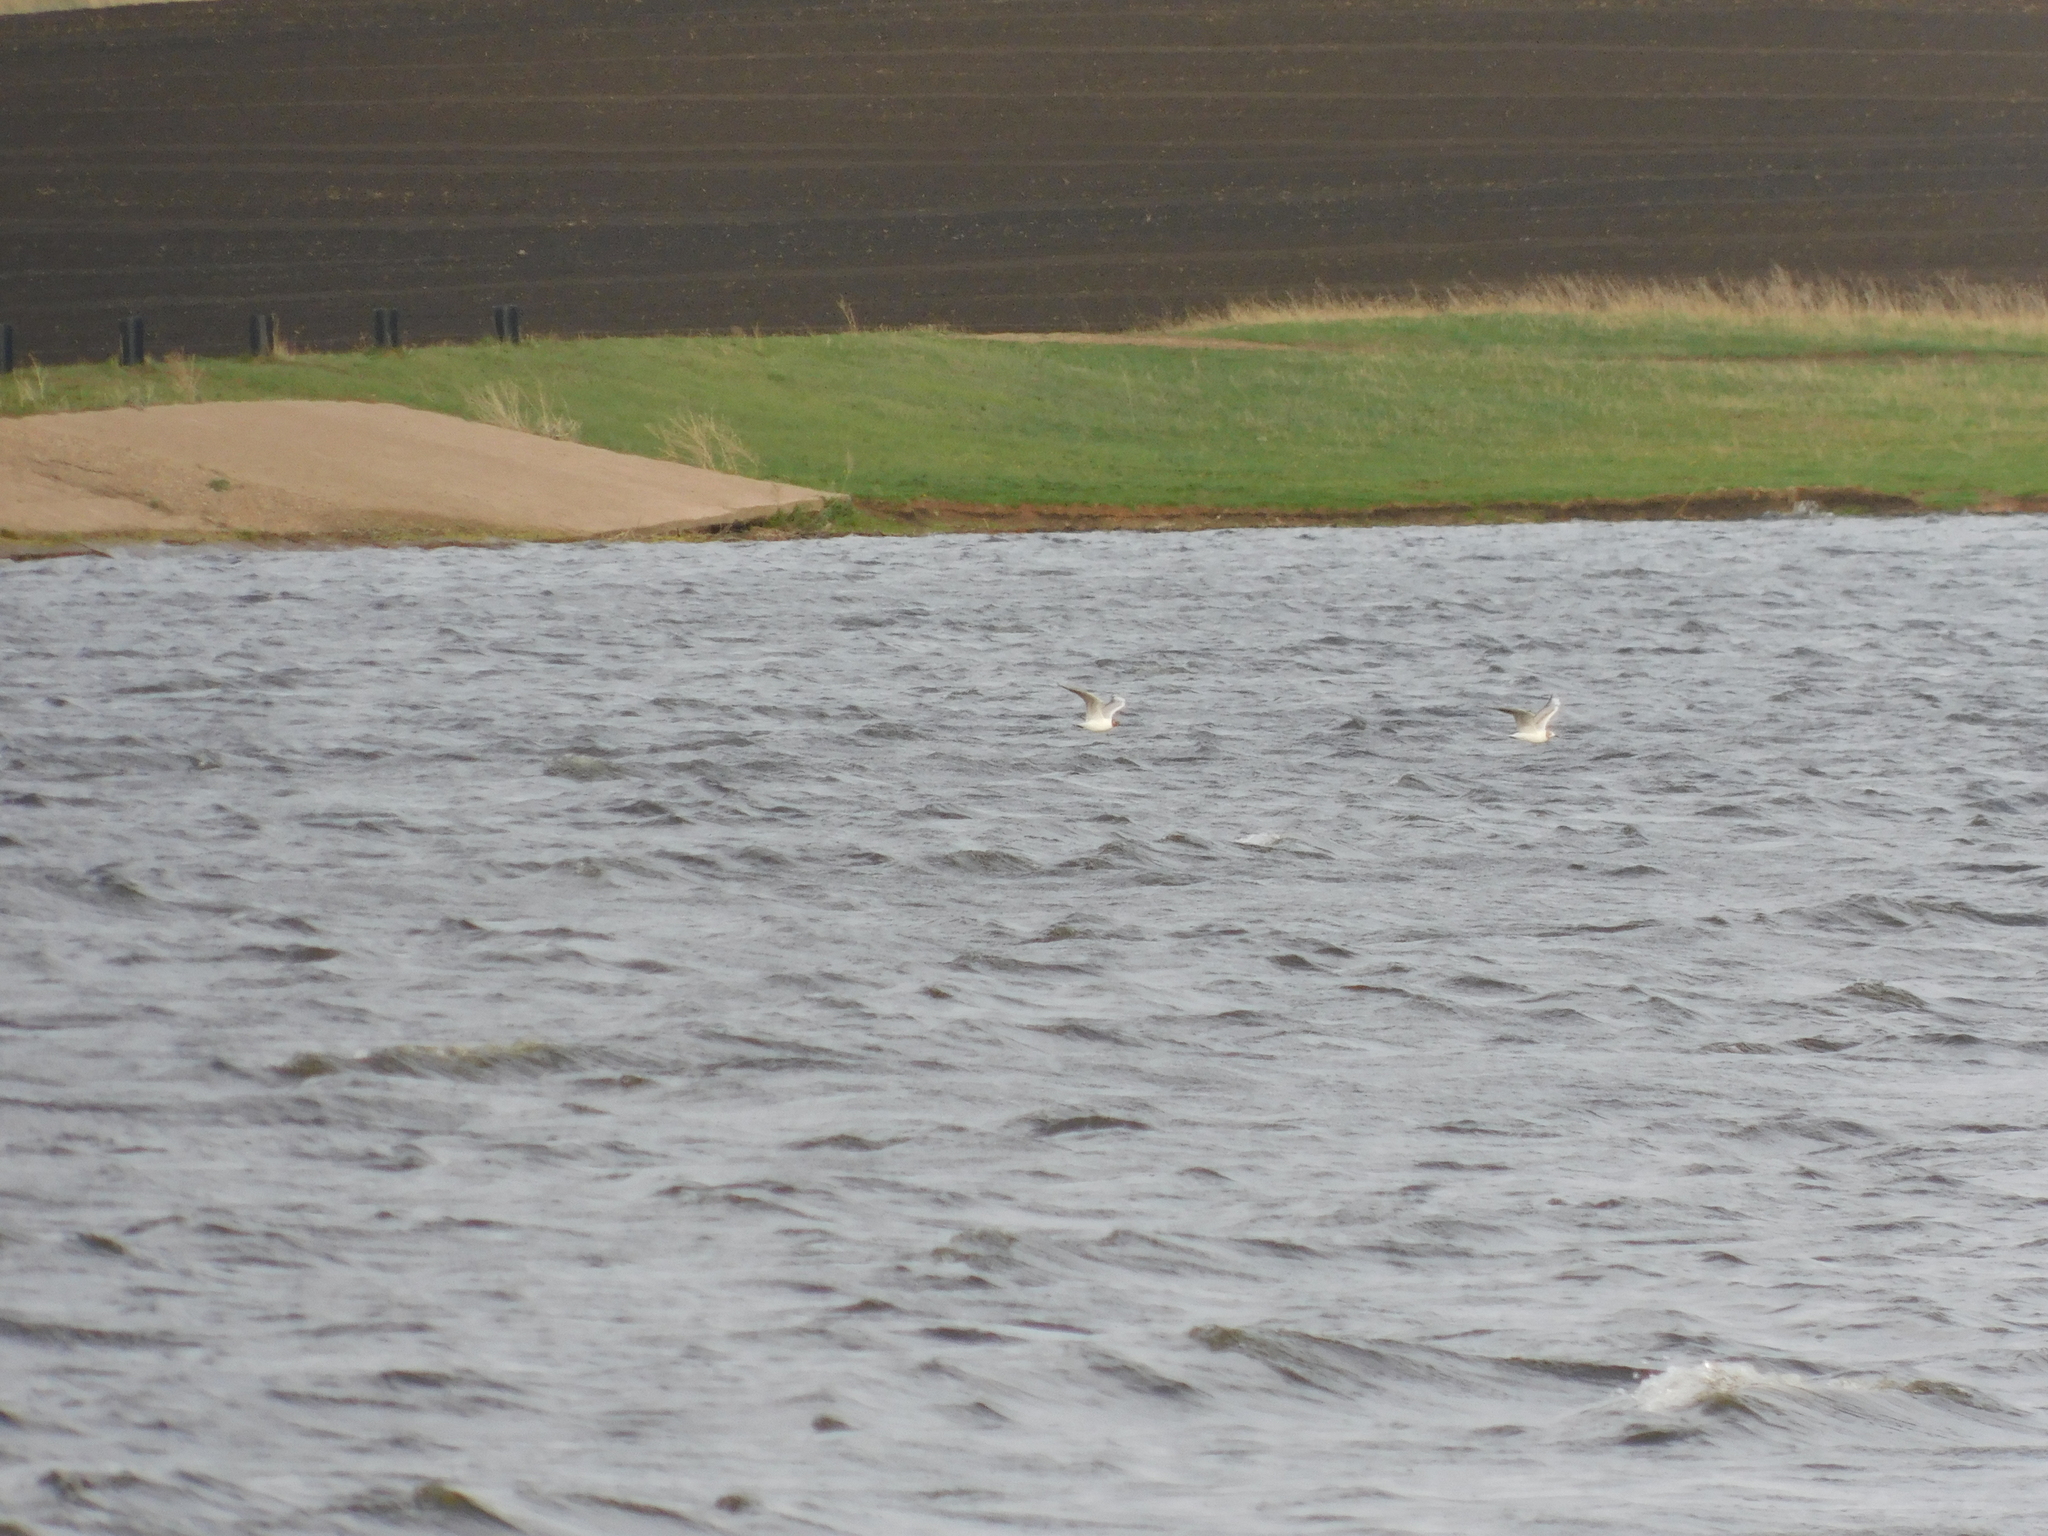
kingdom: Animalia
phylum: Chordata
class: Aves
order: Charadriiformes
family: Laridae
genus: Chroicocephalus
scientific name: Chroicocephalus ridibundus
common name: Black-headed gull
